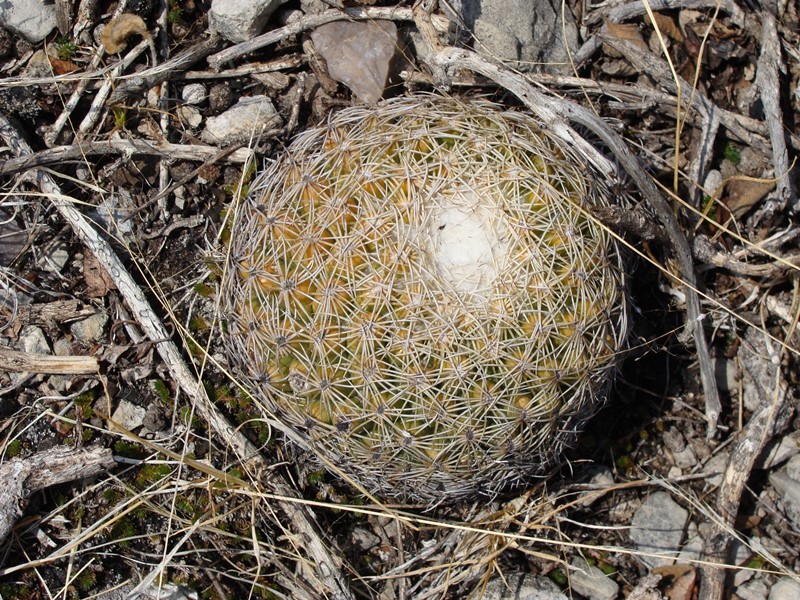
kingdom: Plantae
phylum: Tracheophyta
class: Magnoliopsida
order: Caryophyllales
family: Cactaceae
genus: Coryphantha
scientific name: Coryphantha retusa
